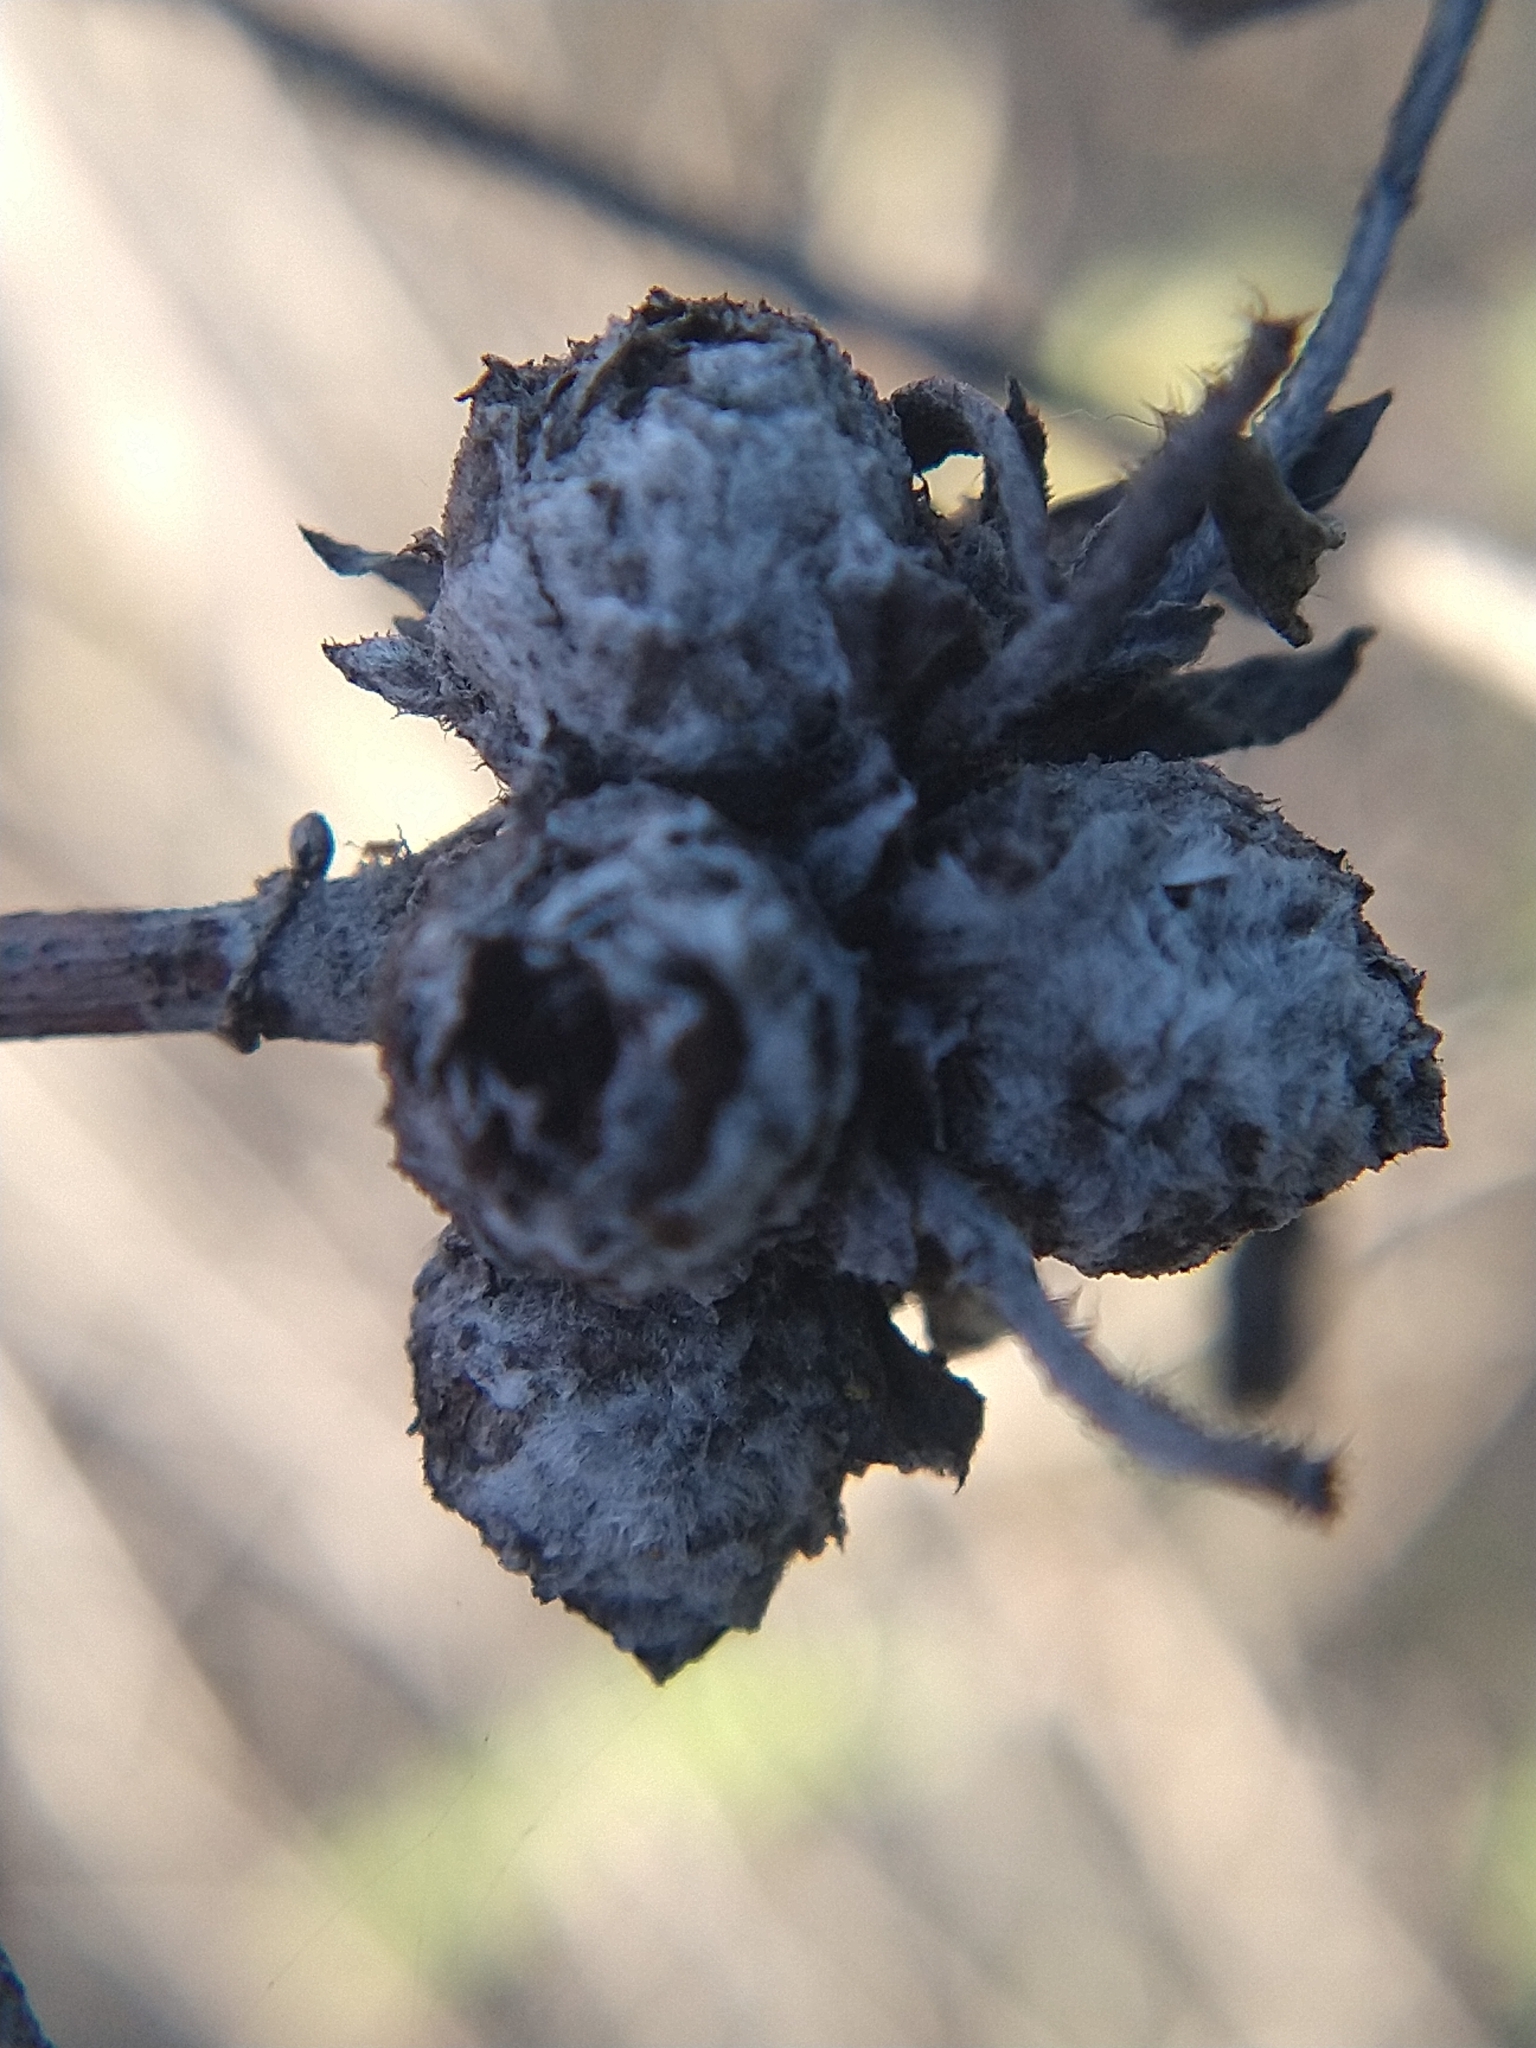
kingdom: Animalia
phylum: Arthropoda
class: Insecta
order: Diptera
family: Cecidomyiidae
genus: Rabdophaga
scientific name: Rabdophaga strobiloides
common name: Willow pinecone gall midge
